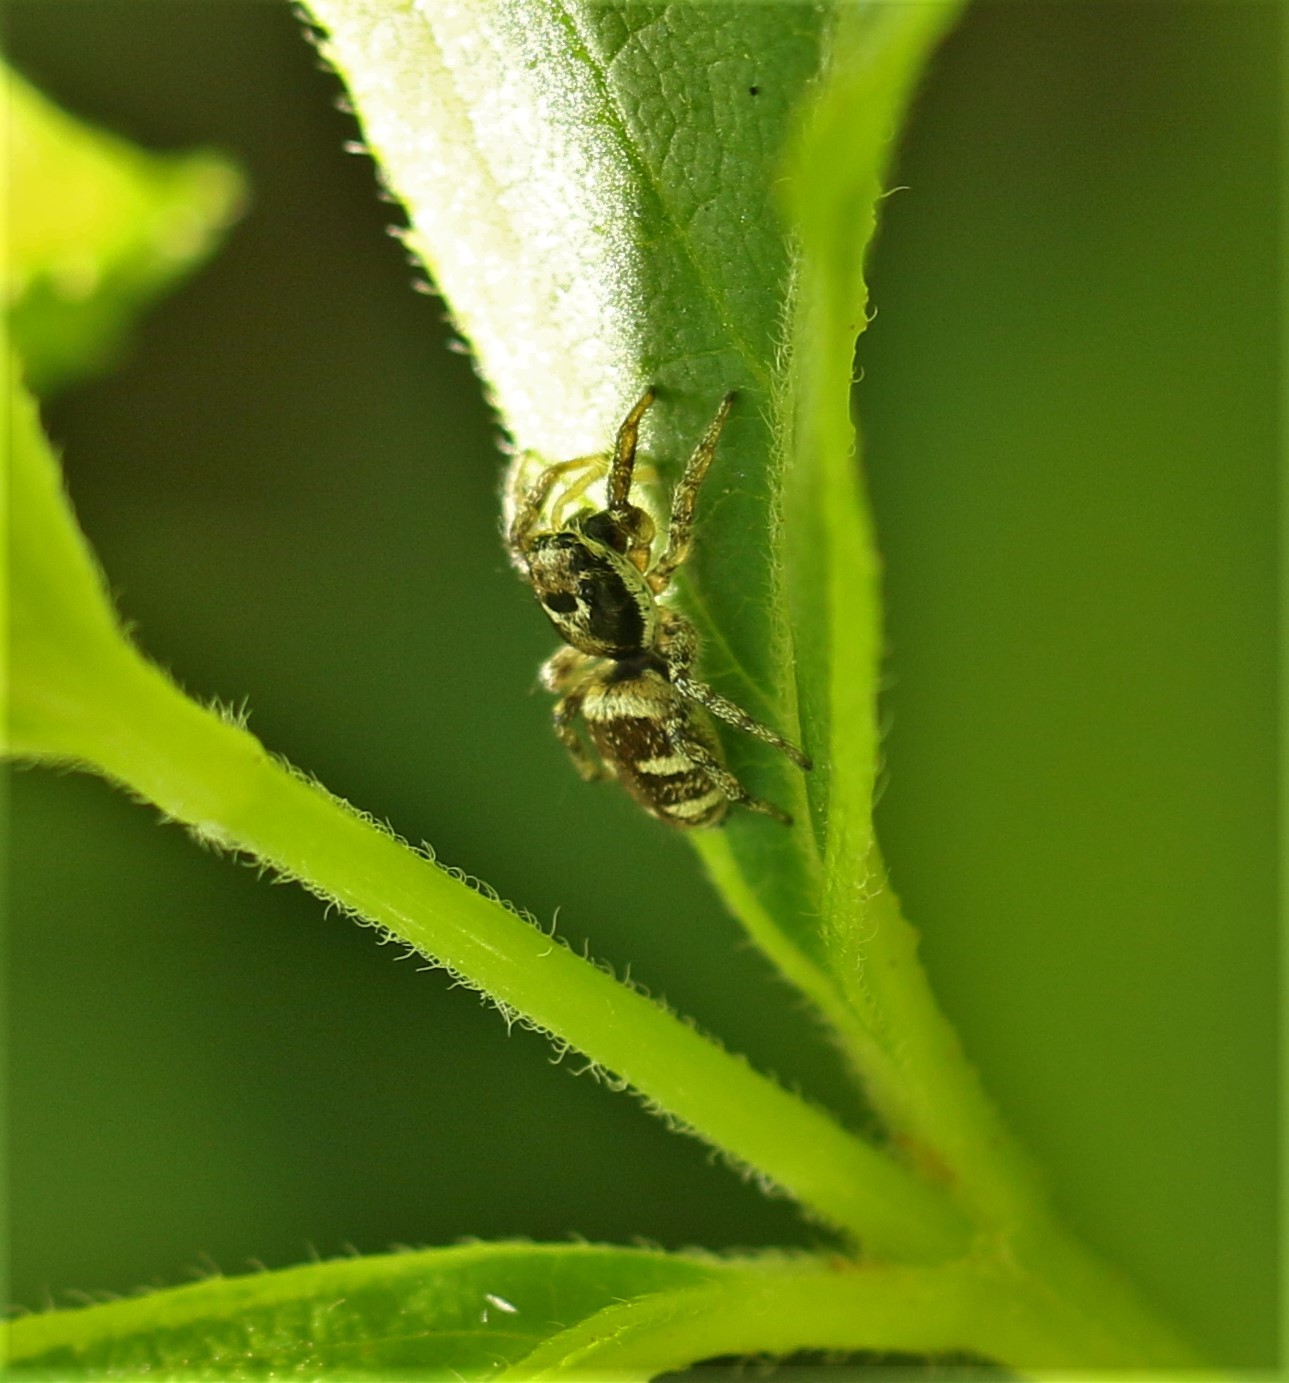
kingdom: Animalia
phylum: Arthropoda
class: Arachnida
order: Araneae
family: Salticidae
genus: Salticus
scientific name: Salticus scenicus
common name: Zebra jumper
